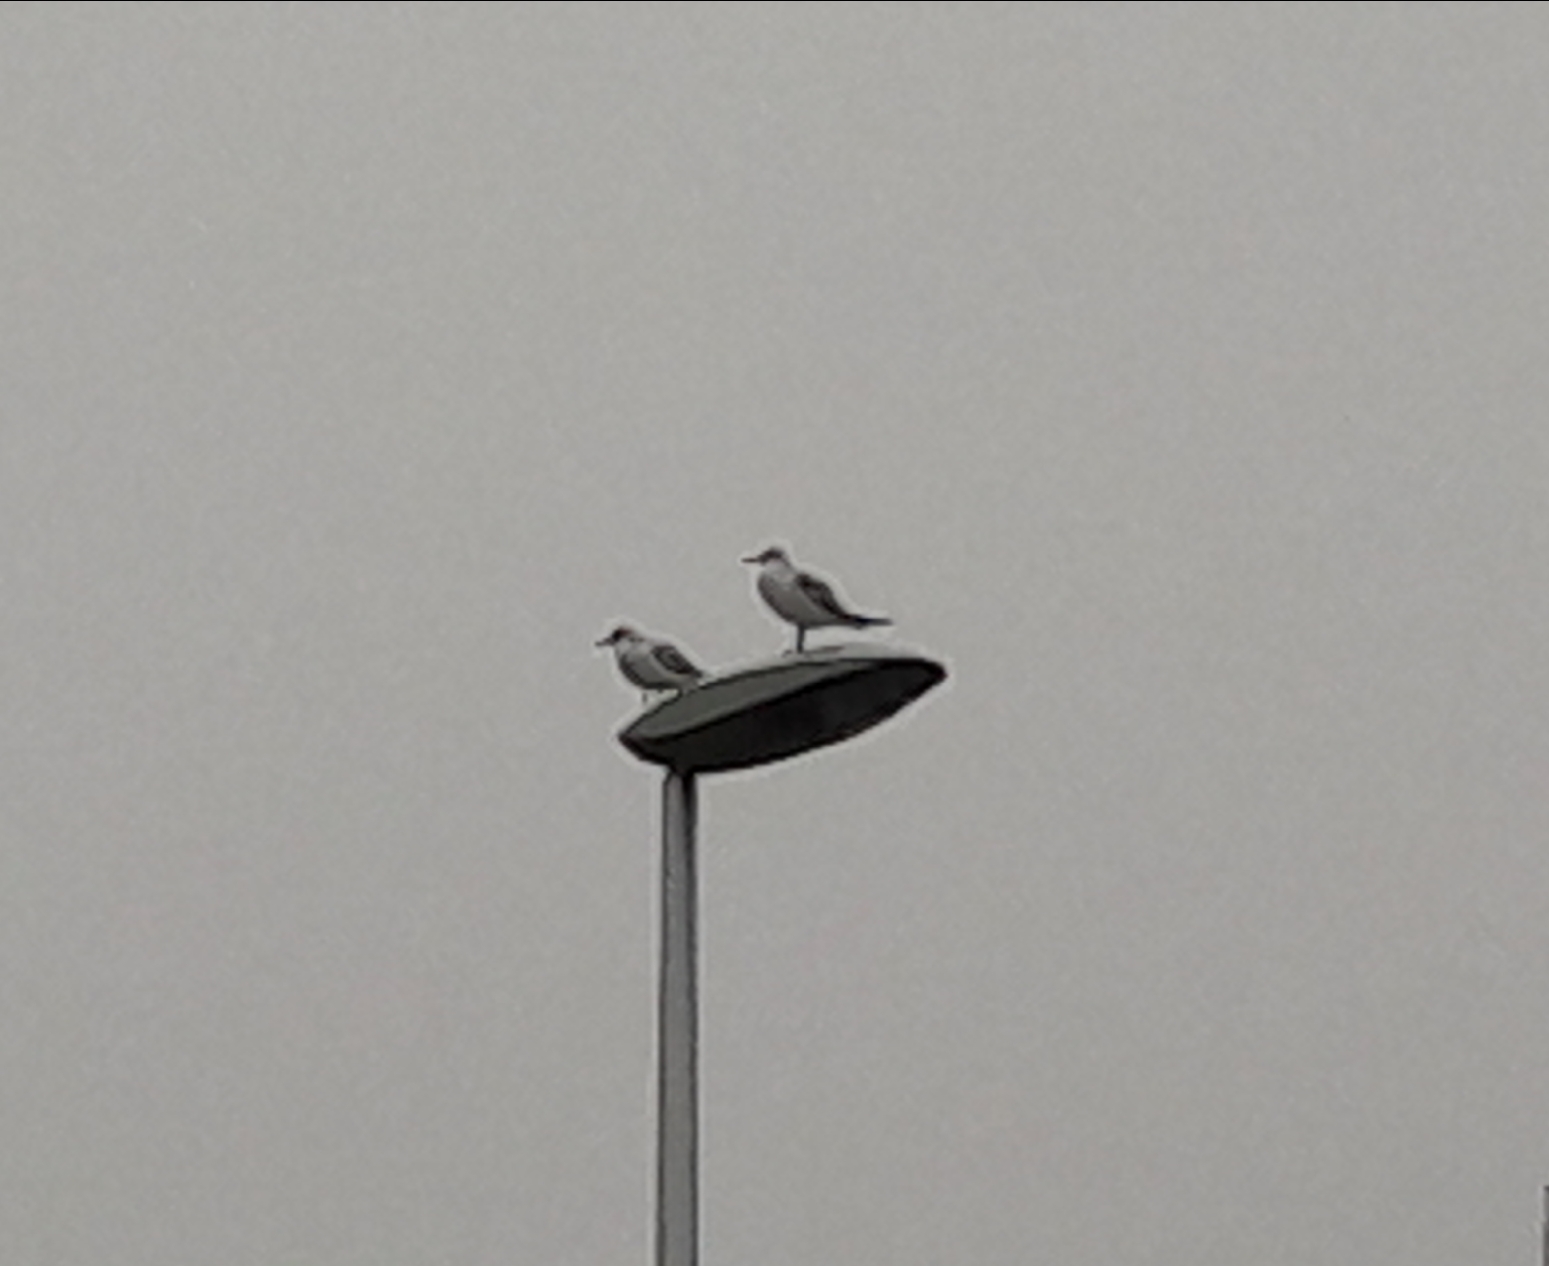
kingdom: Animalia
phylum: Chordata
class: Aves
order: Charadriiformes
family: Laridae
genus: Chroicocephalus
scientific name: Chroicocephalus ridibundus
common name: Black-headed gull
